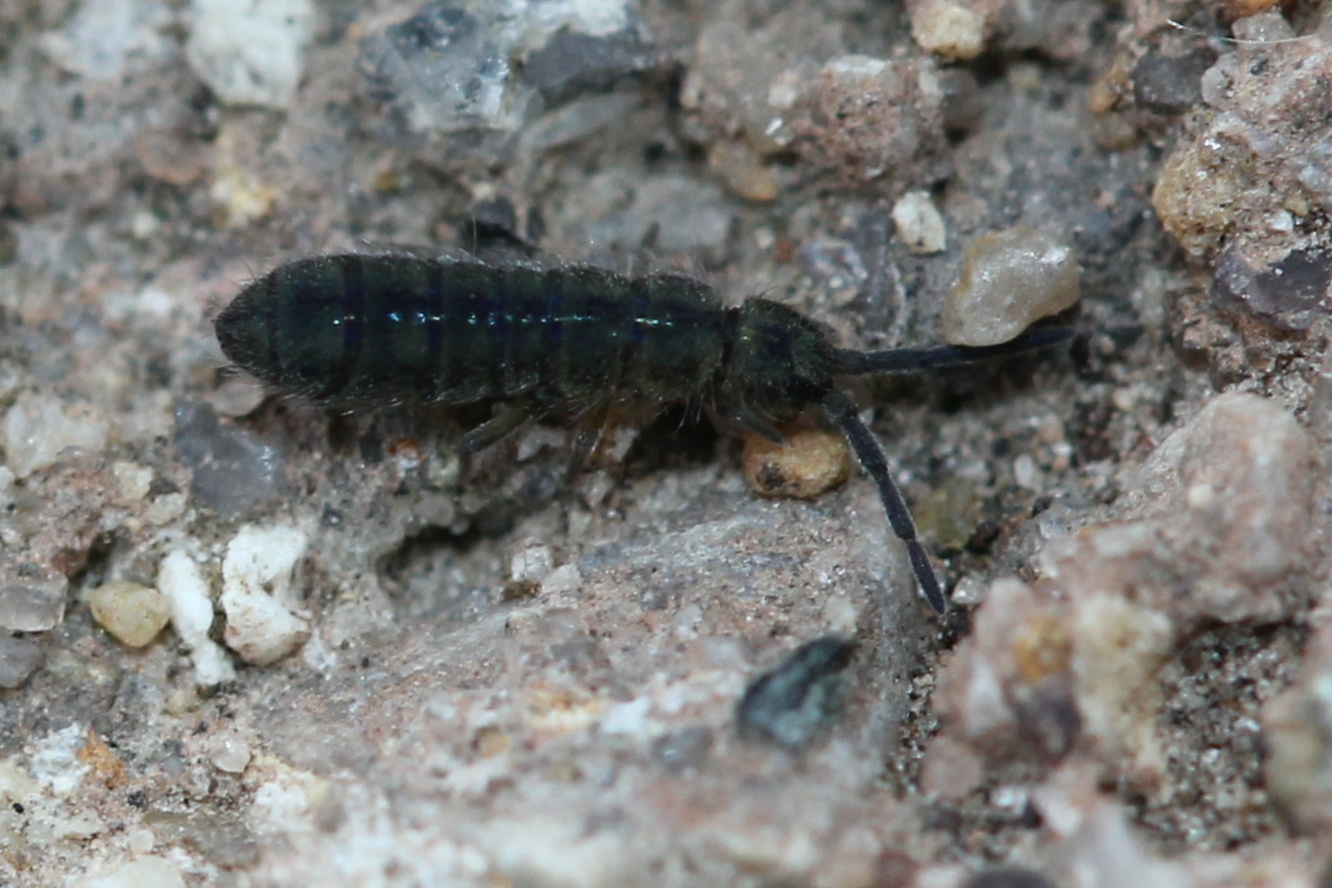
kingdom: Animalia
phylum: Arthropoda
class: Collembola
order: Entomobryomorpha
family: Isotomidae
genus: Isotoma
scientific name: Isotoma delta
